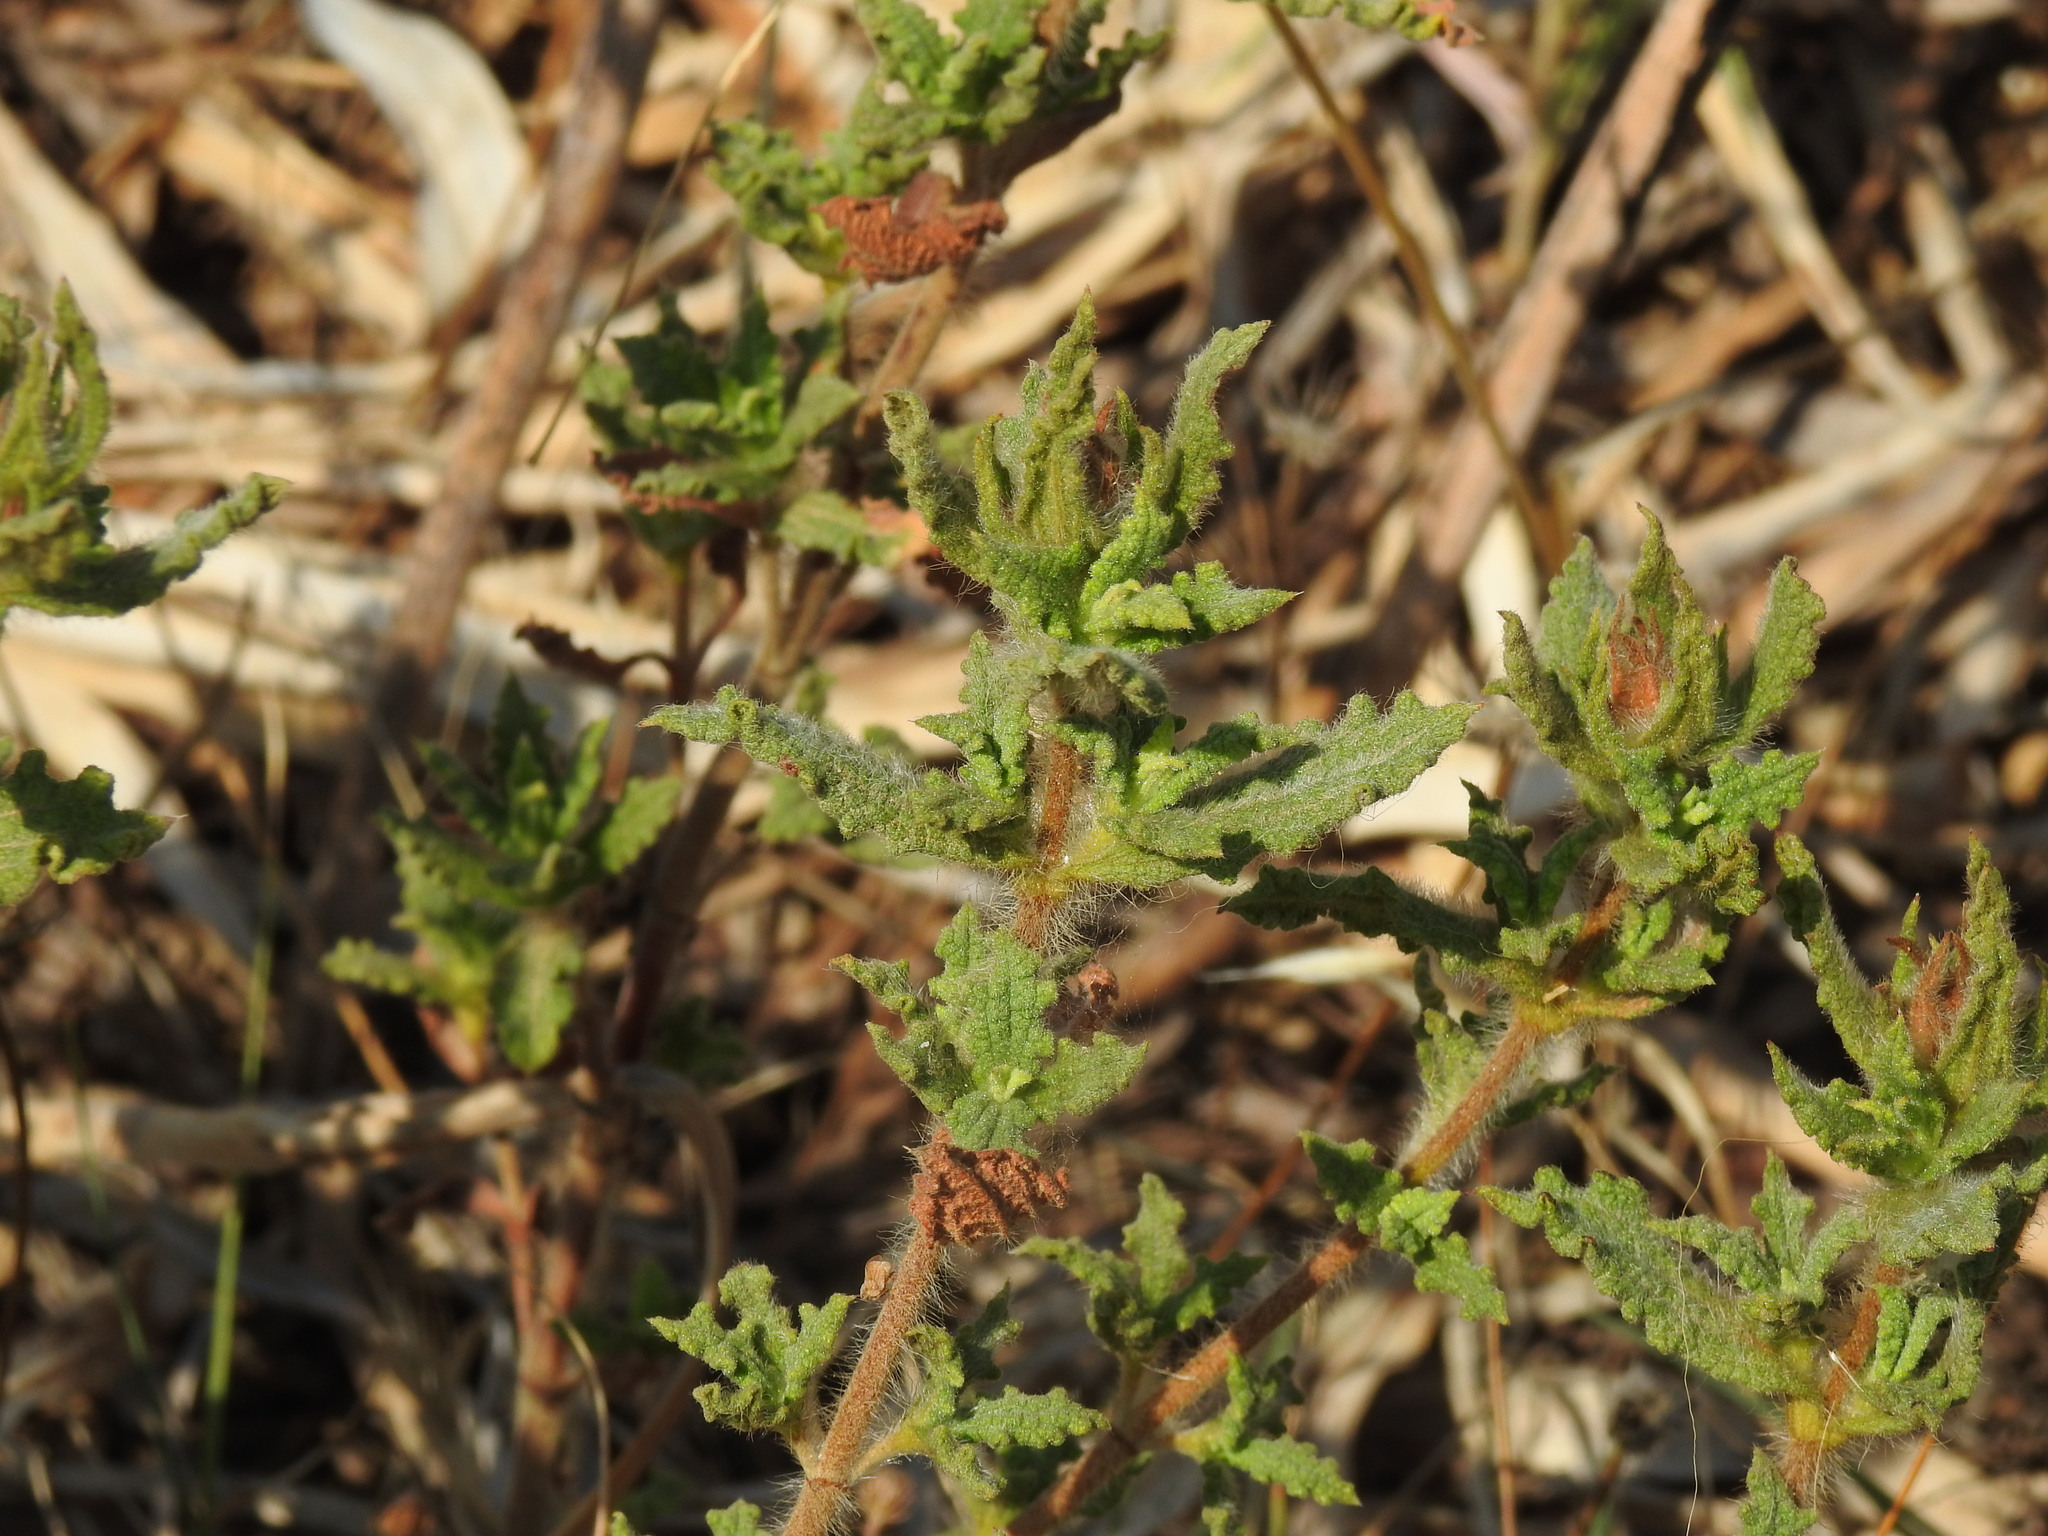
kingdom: Plantae
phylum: Tracheophyta
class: Magnoliopsida
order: Malvales
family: Cistaceae
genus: Cistus
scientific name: Cistus crispus
